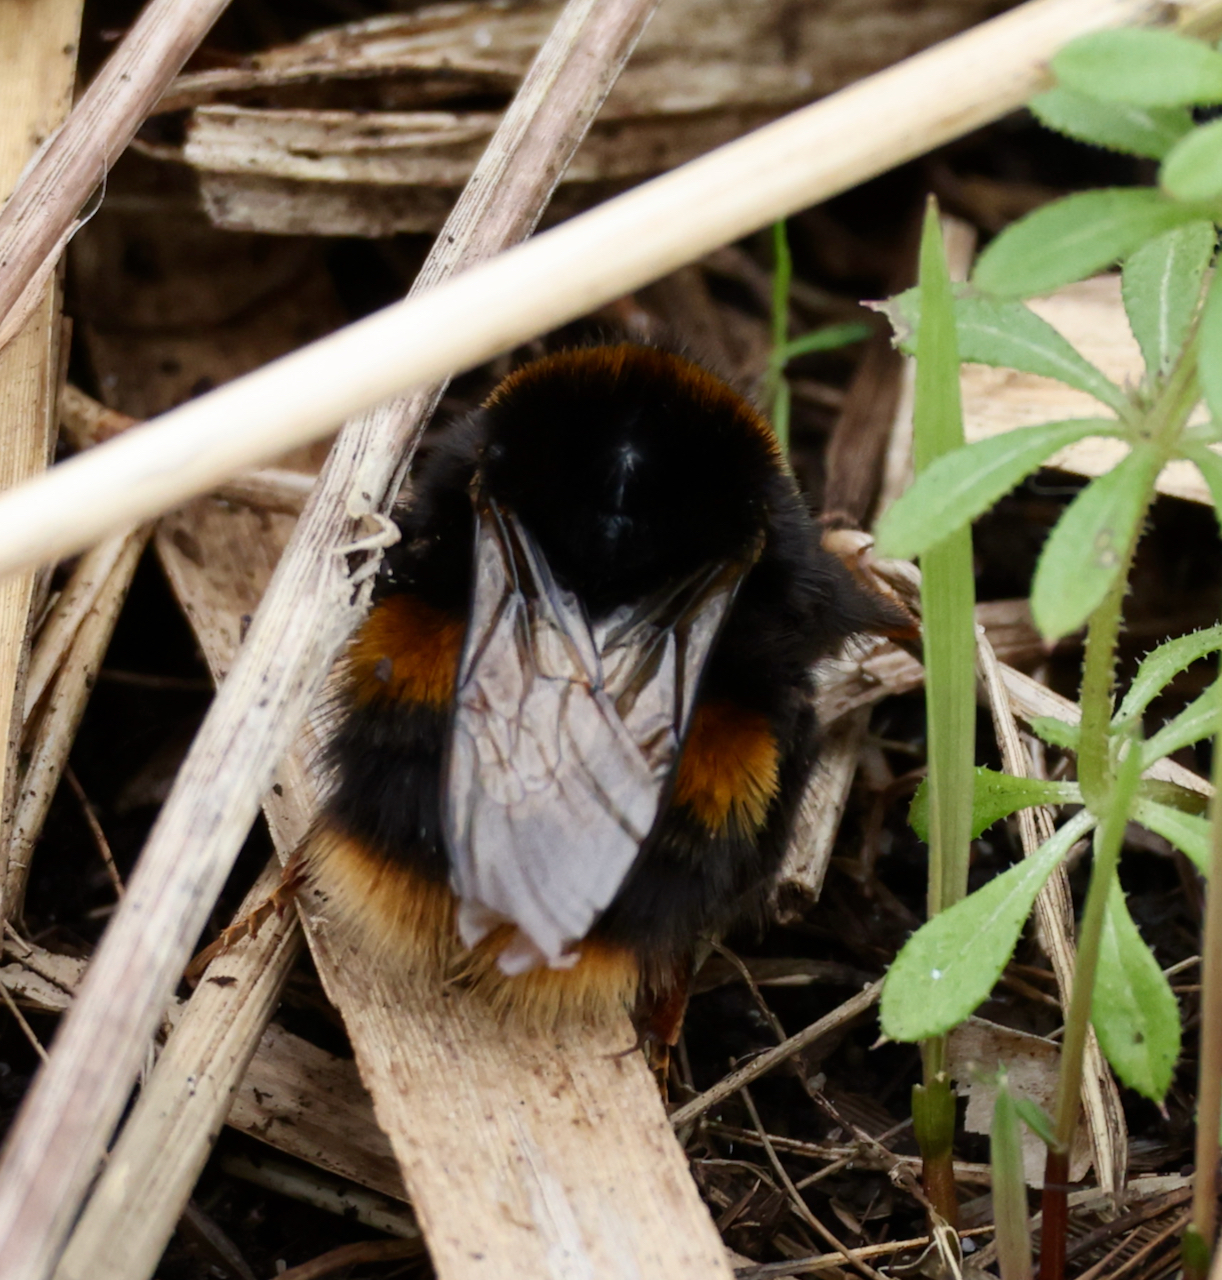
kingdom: Animalia
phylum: Arthropoda
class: Insecta
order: Hymenoptera
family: Apidae
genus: Bombus
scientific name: Bombus terrestris
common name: Buff-tailed bumblebee
